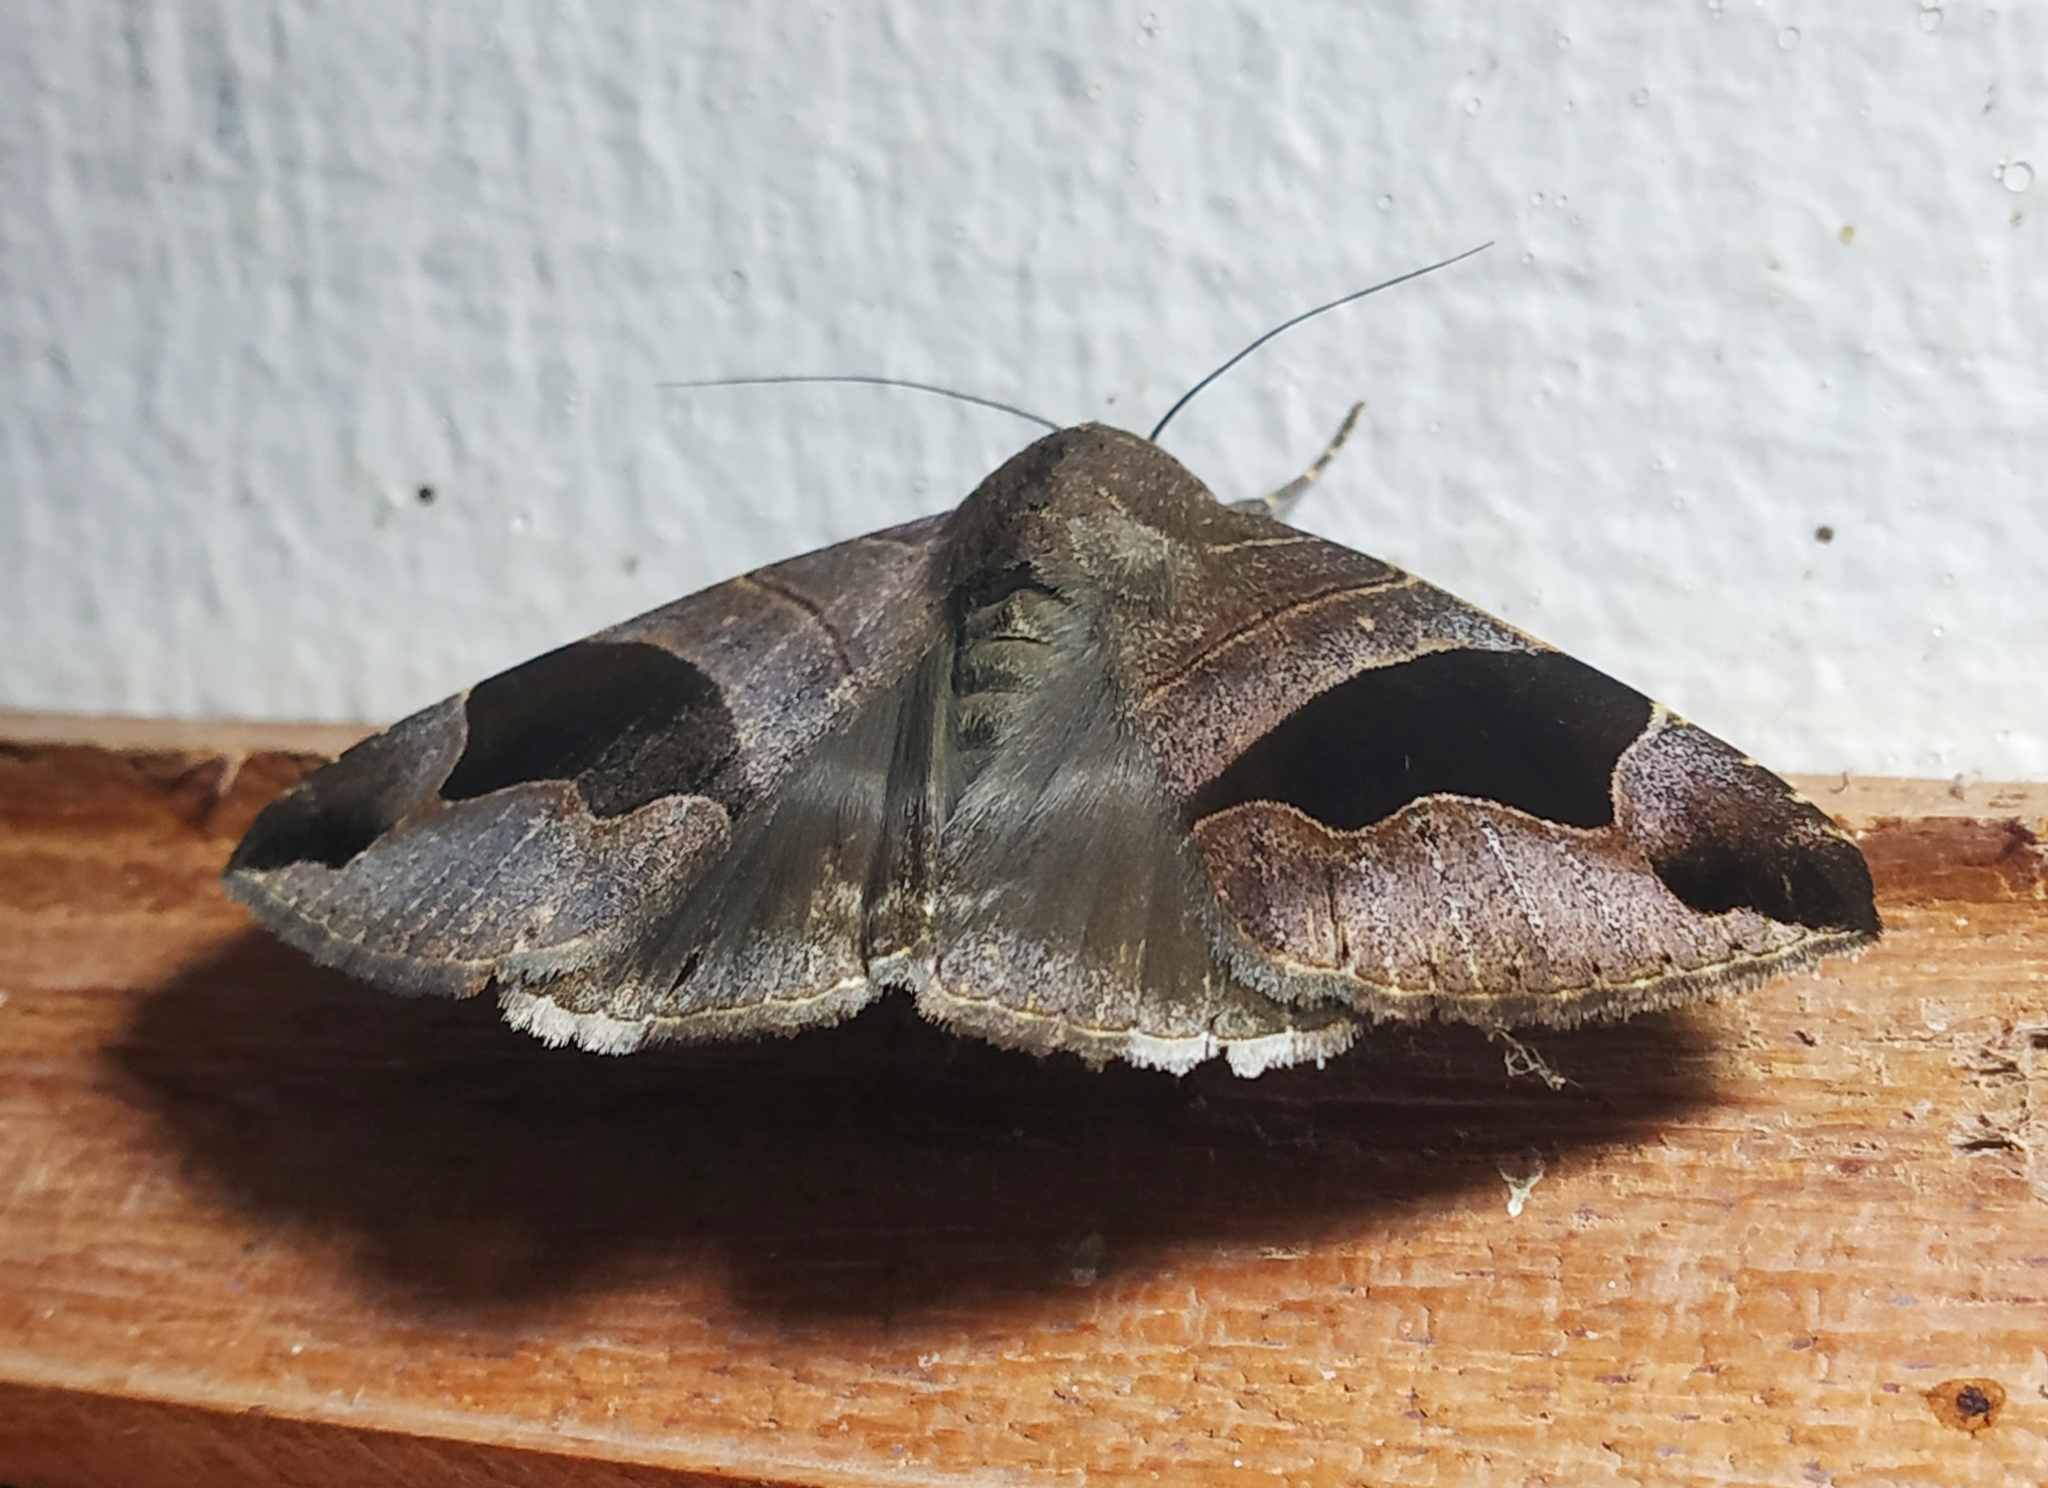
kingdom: Animalia
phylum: Arthropoda
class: Insecta
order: Lepidoptera
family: Erebidae
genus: Bastilla
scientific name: Bastilla joviana
